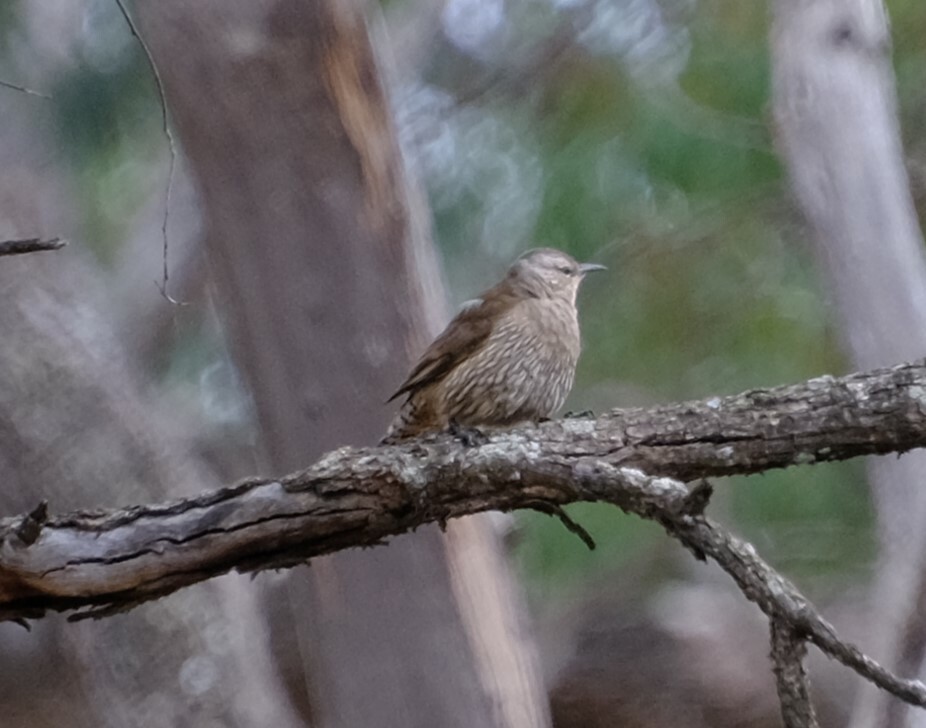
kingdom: Animalia
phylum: Chordata
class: Aves
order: Passeriformes
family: Climacteridae
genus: Climacteris
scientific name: Climacteris picumnus
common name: Brown treecreeper
